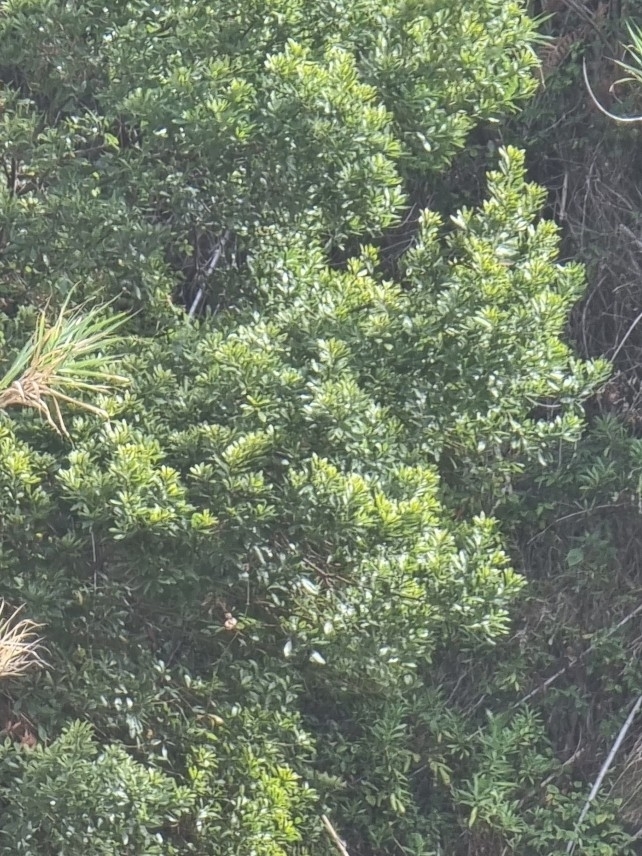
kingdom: Plantae
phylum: Tracheophyta
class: Magnoliopsida
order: Fagales
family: Myricaceae
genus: Morella
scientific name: Morella faya
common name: Firetree
